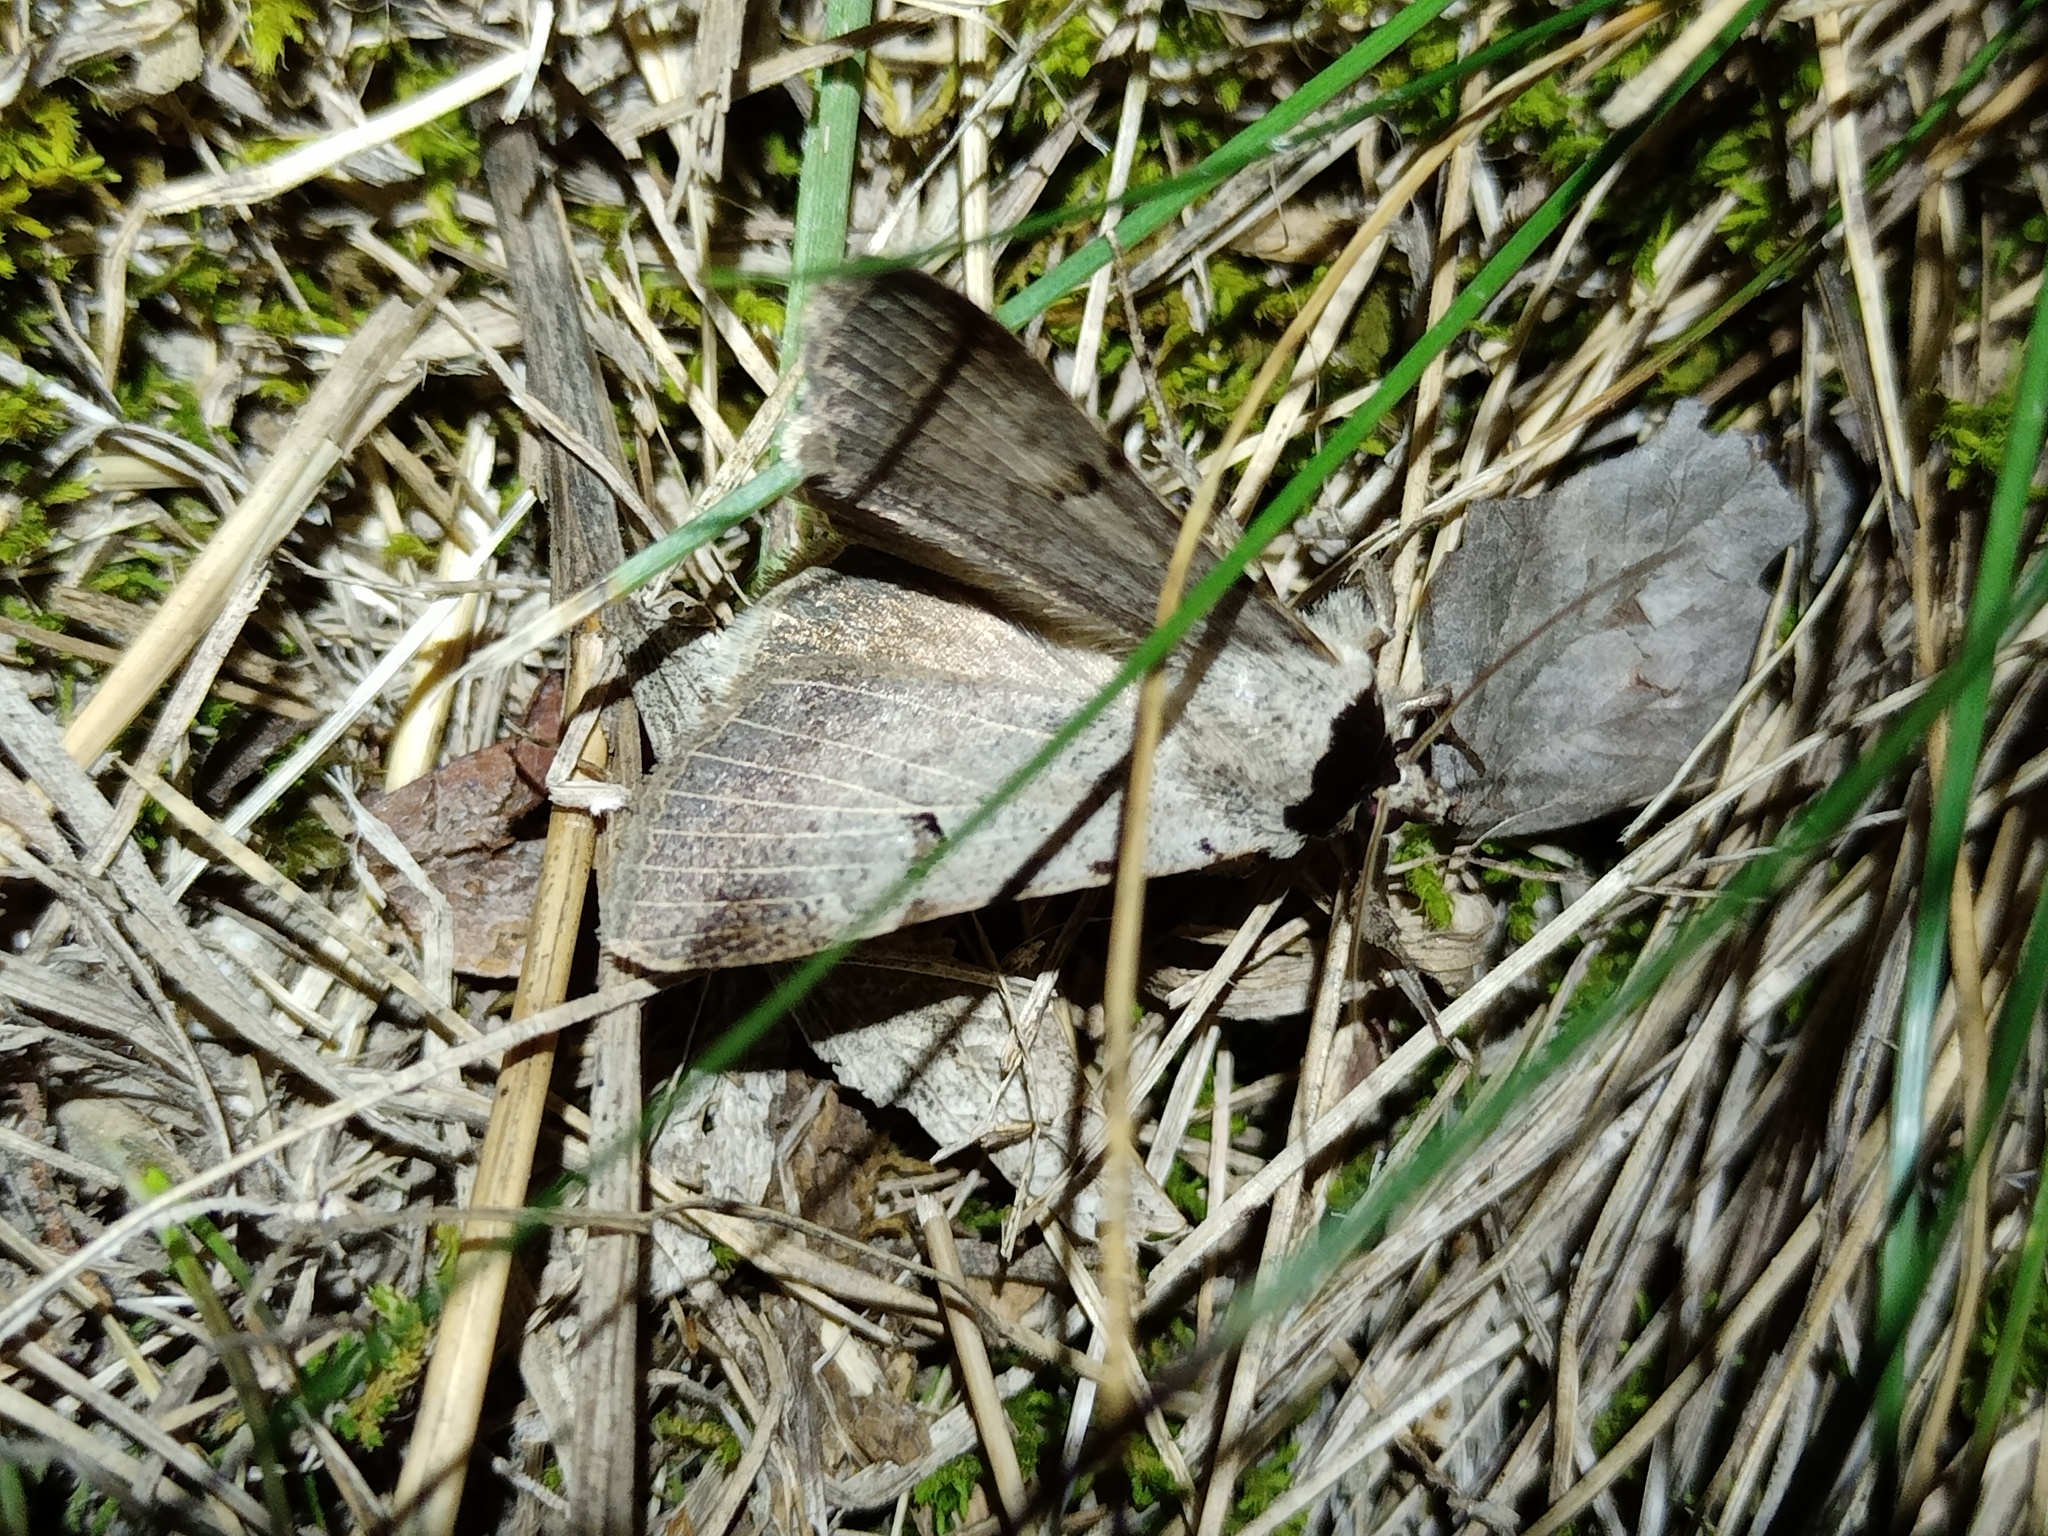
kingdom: Animalia
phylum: Arthropoda
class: Insecta
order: Lepidoptera
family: Erebidae
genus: Lygephila
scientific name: Lygephila craccae
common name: Scarce blackneck
